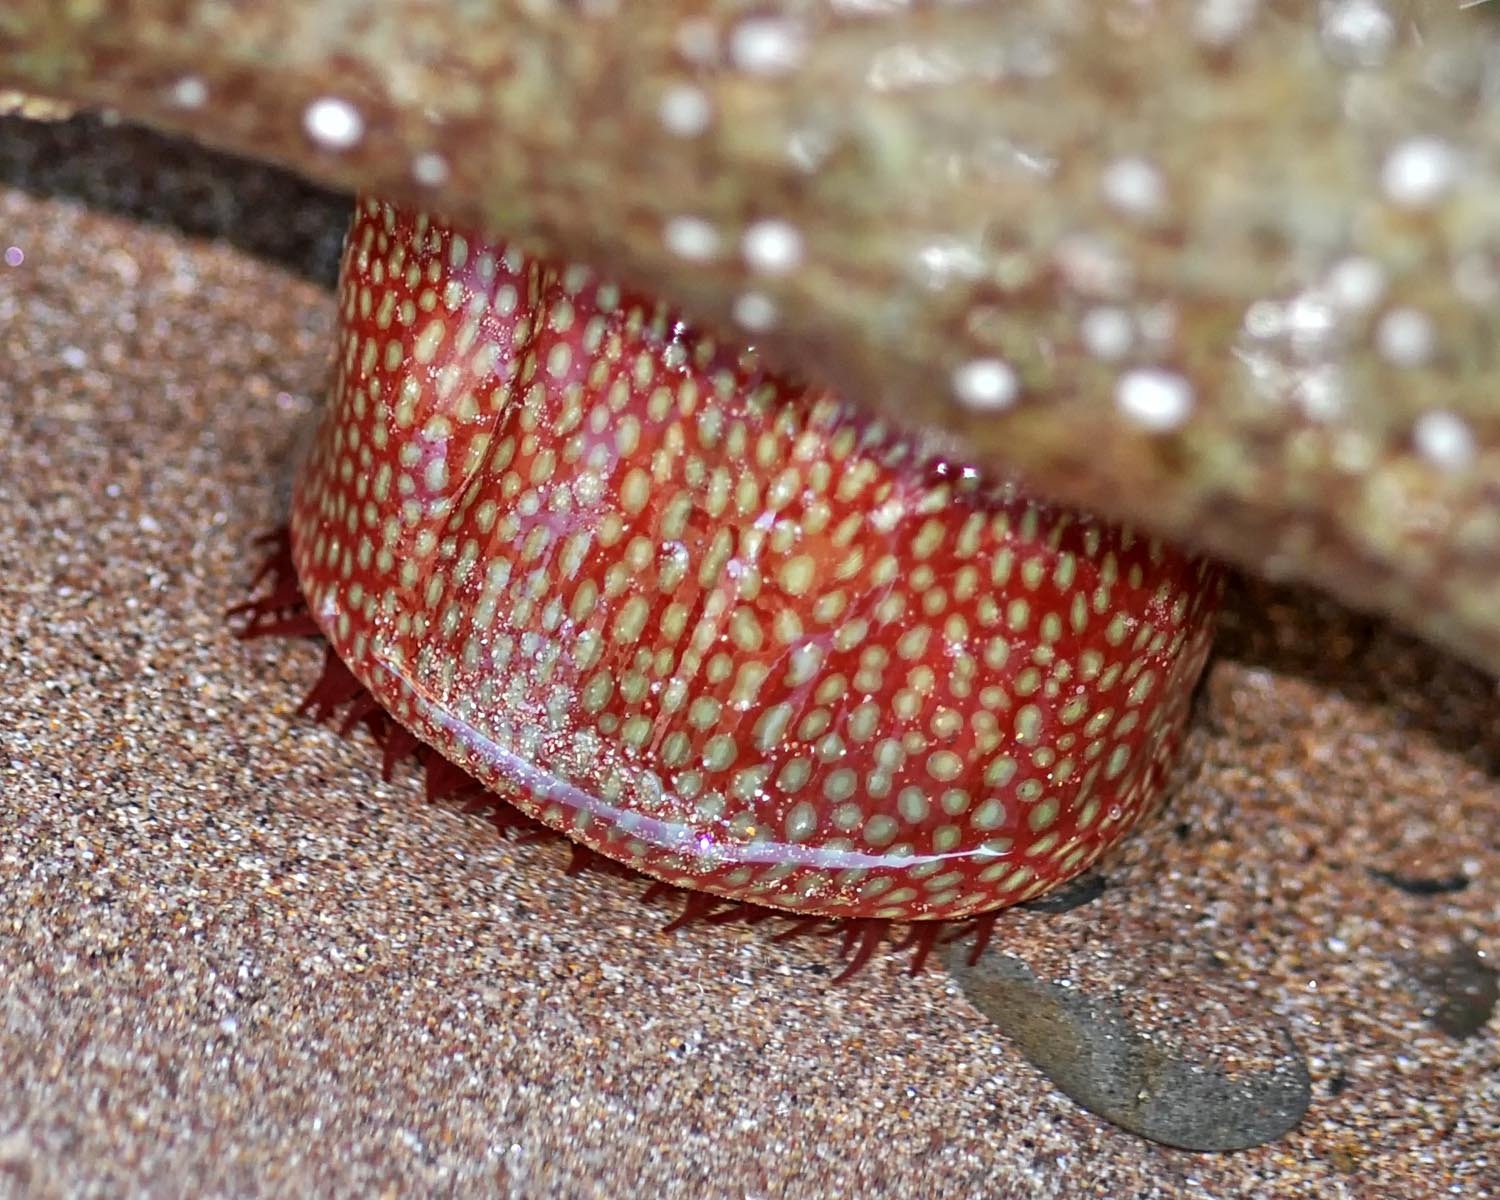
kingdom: Animalia
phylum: Cnidaria
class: Anthozoa
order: Actiniaria
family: Actiniidae
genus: Actinia
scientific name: Actinia fragacea
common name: Strawberry anemone
